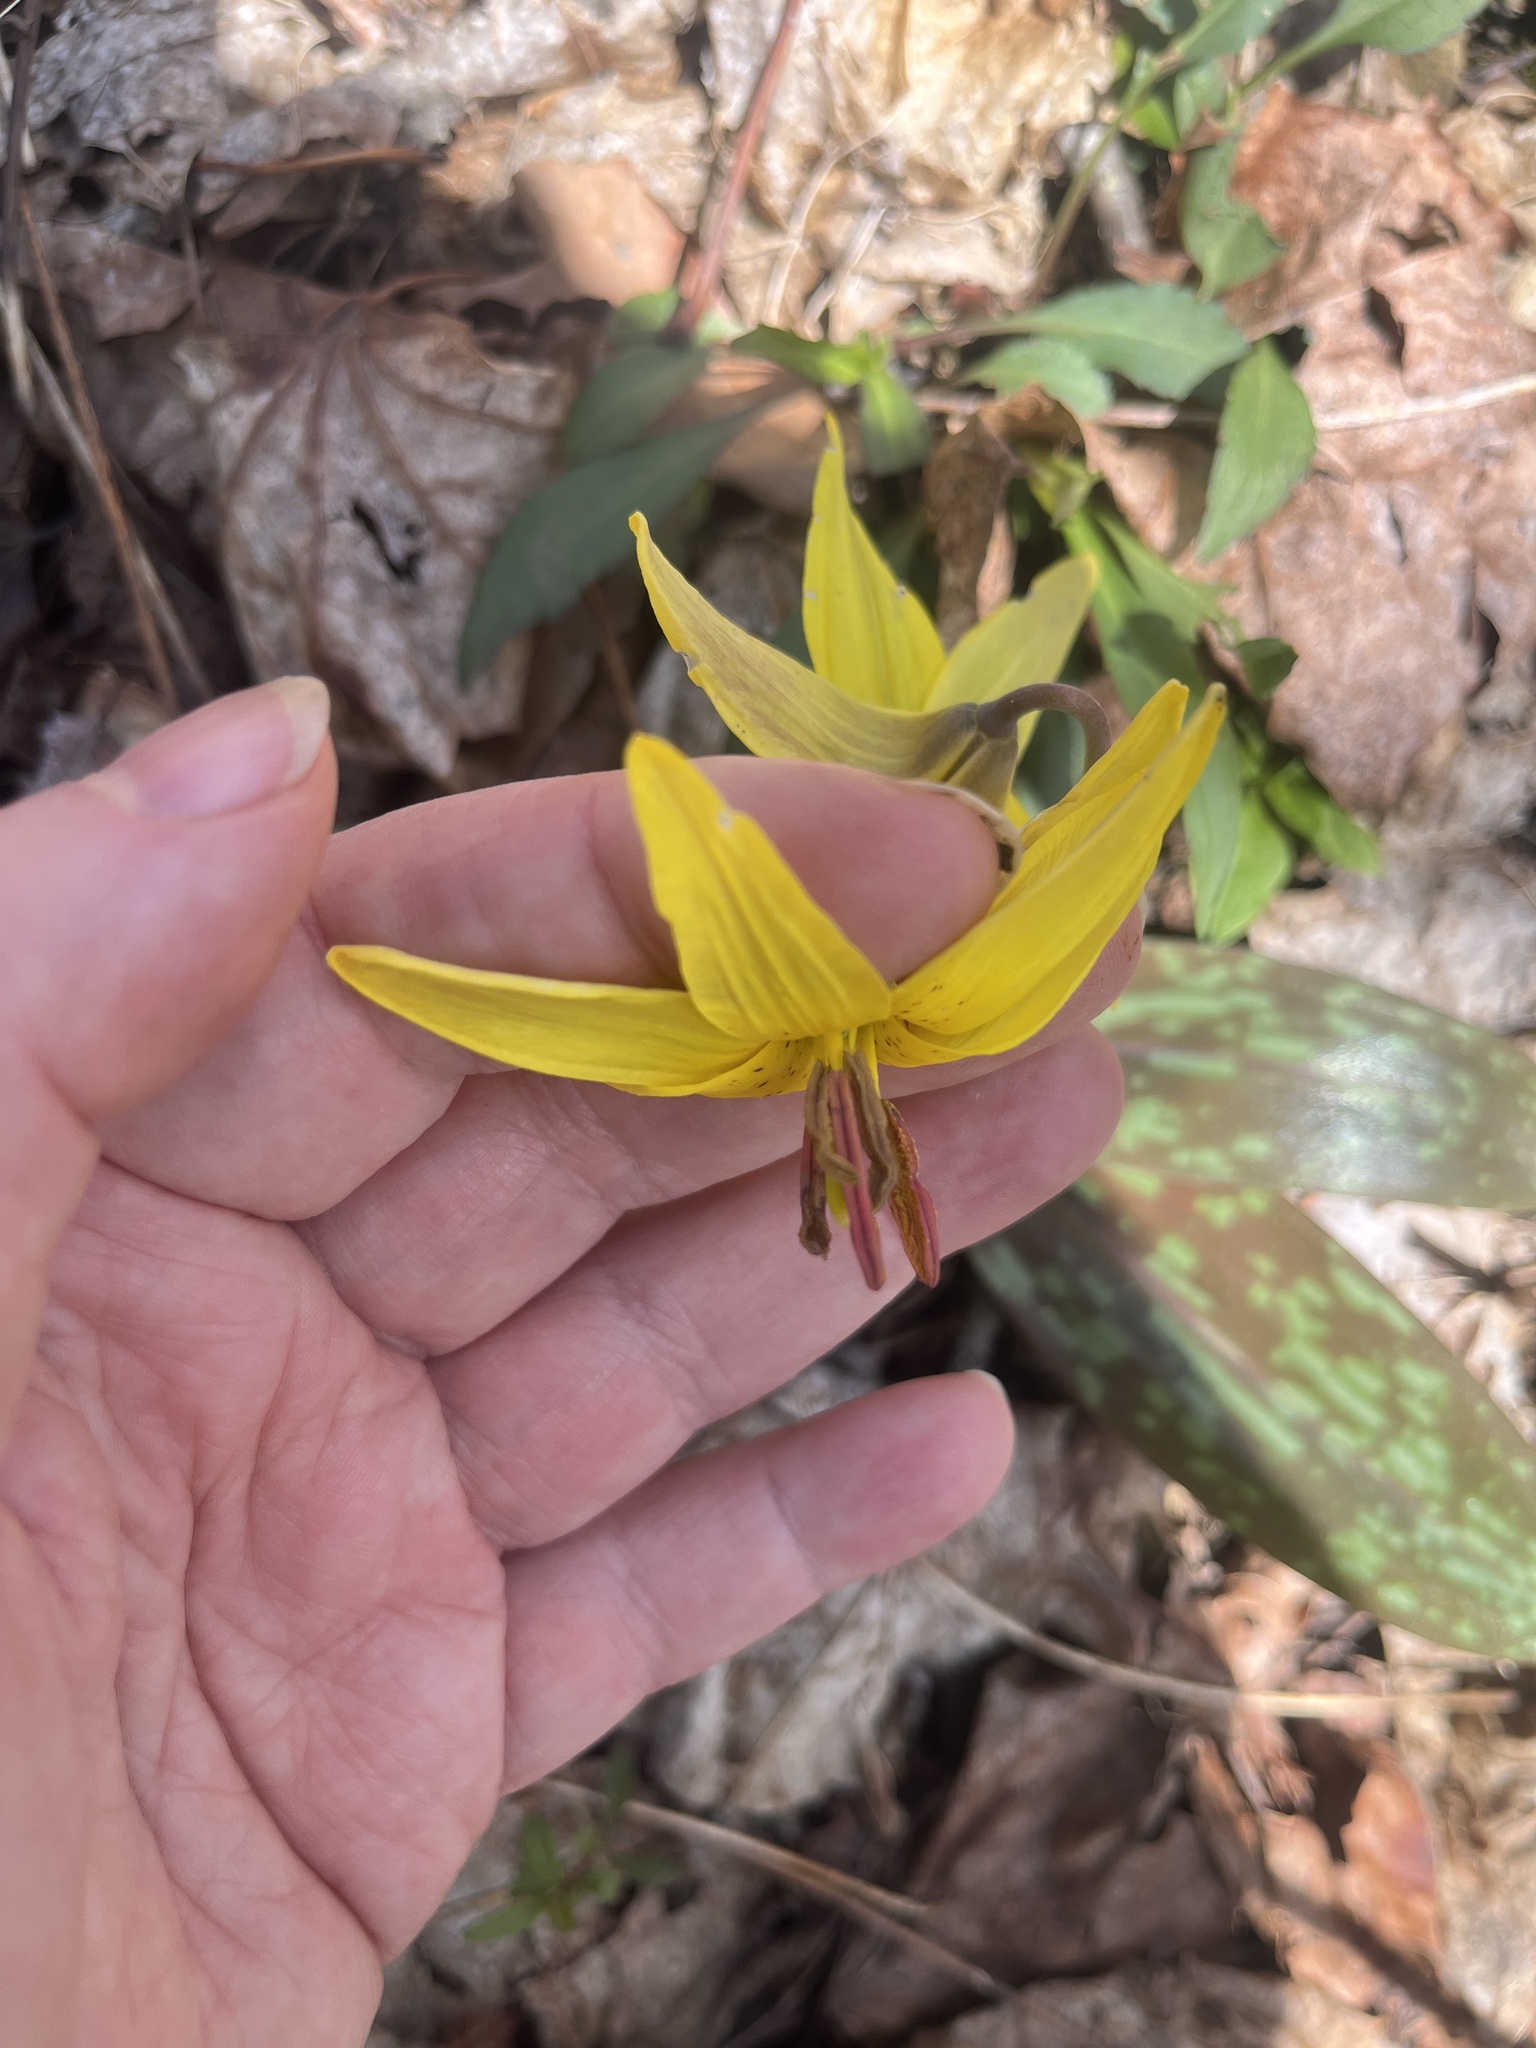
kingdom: Plantae
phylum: Tracheophyta
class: Liliopsida
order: Liliales
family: Liliaceae
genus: Erythronium
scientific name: Erythronium americanum
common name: Yellow adder's-tongue
